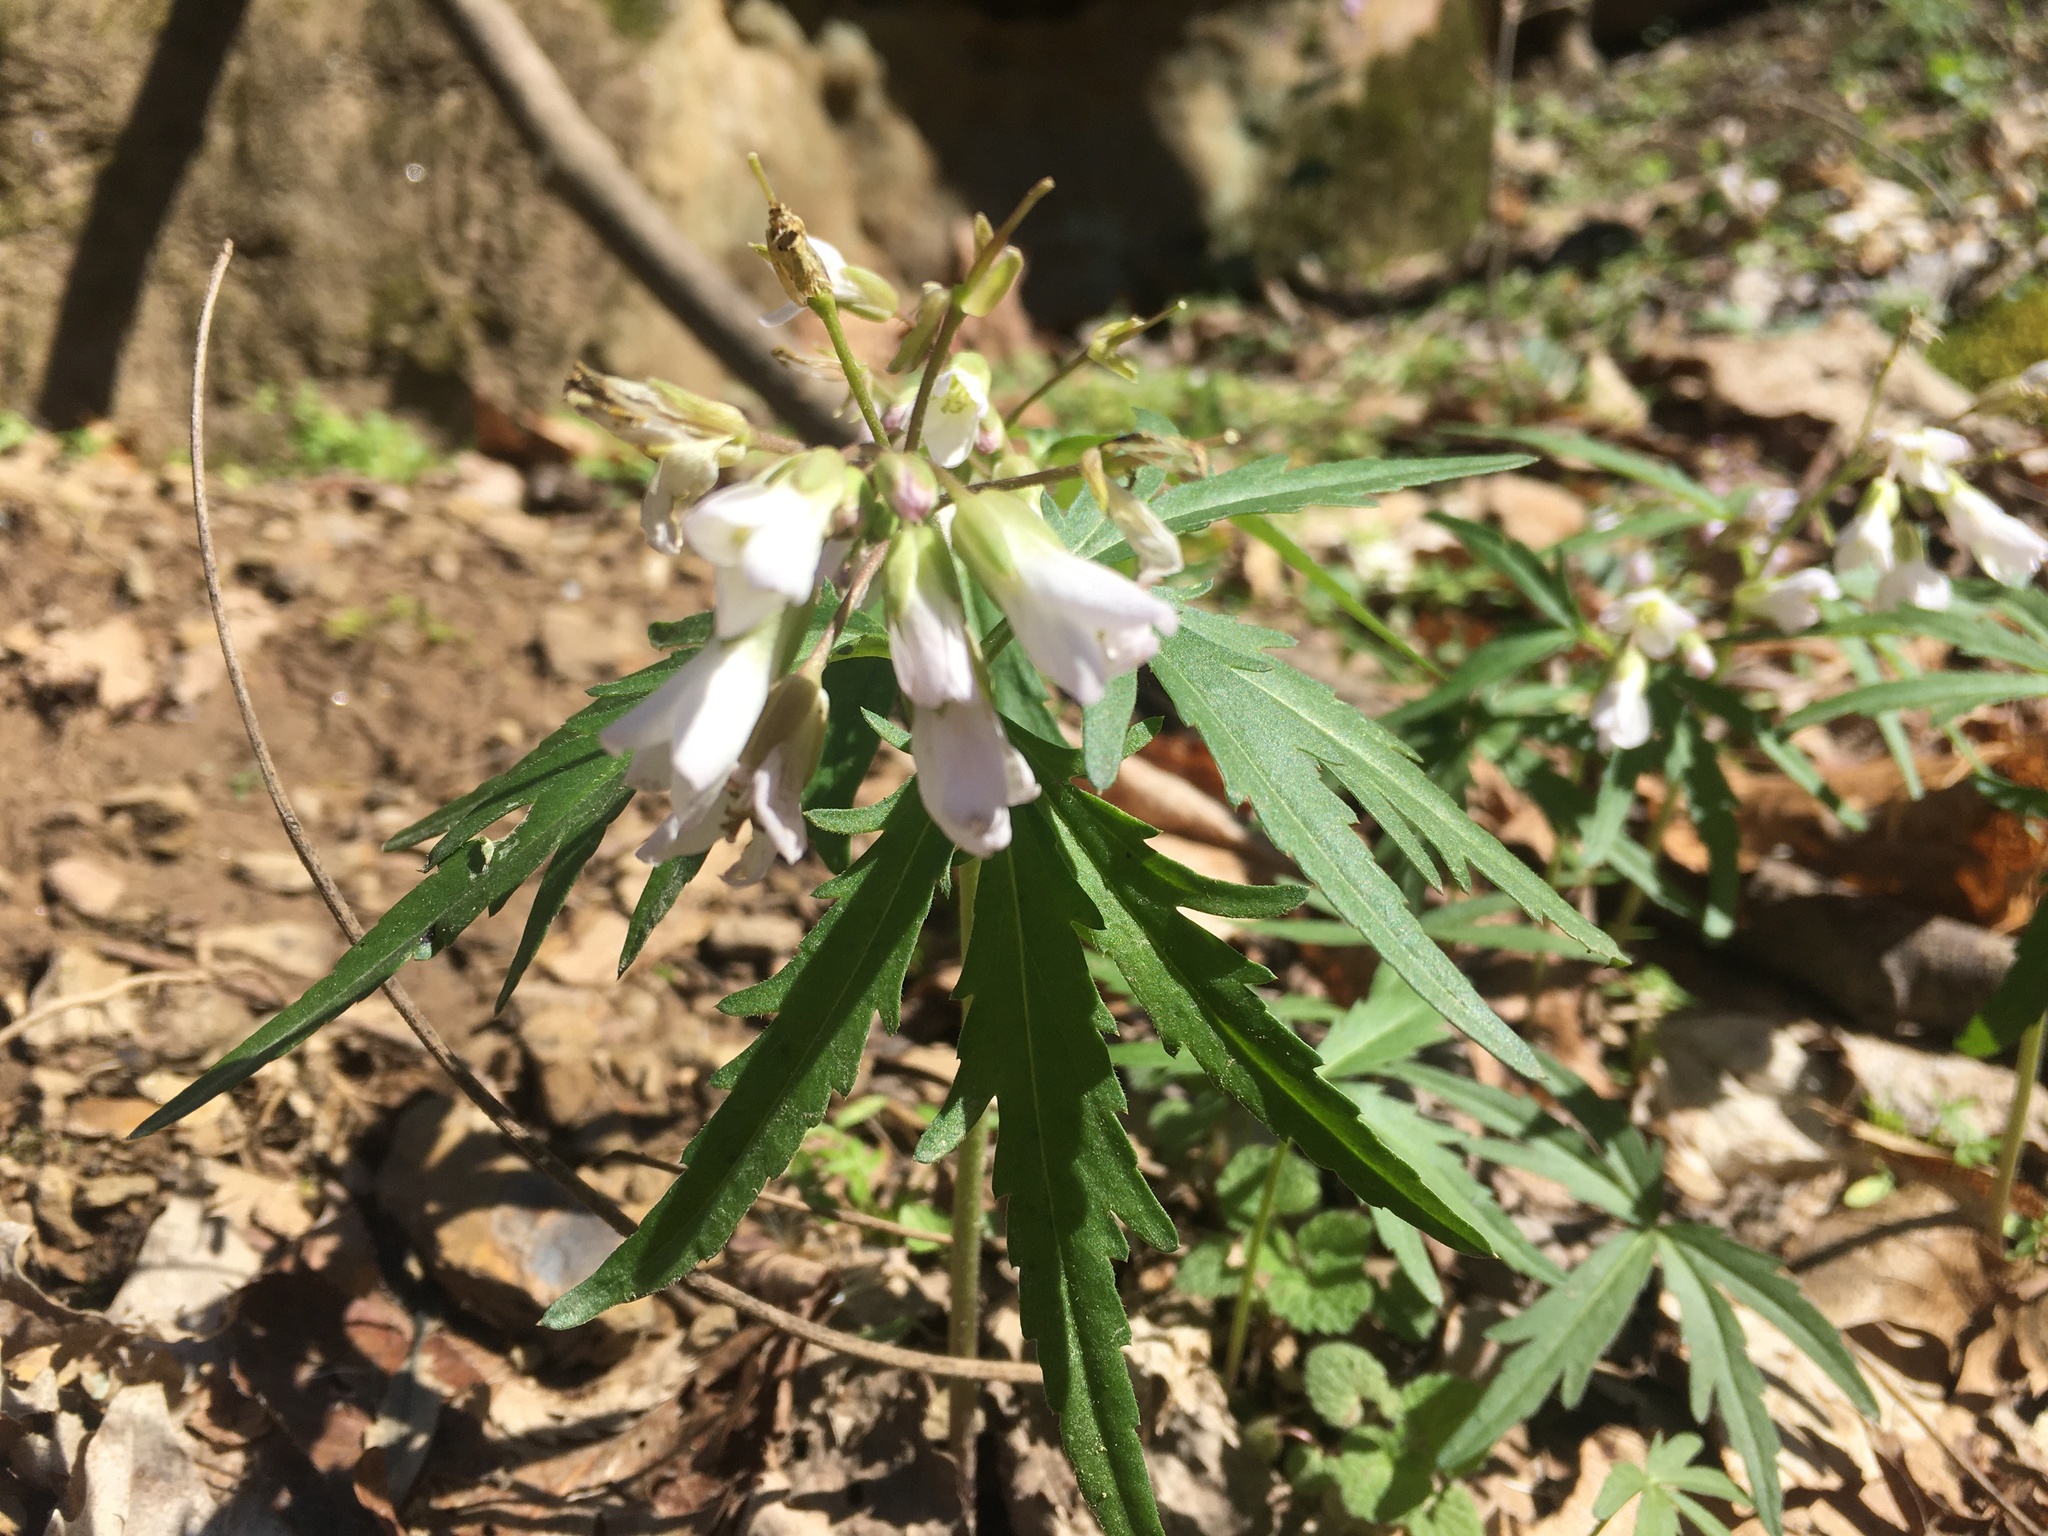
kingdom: Plantae
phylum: Tracheophyta
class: Magnoliopsida
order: Brassicales
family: Brassicaceae
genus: Cardamine
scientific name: Cardamine concatenata
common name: Cut-leaf toothcup
